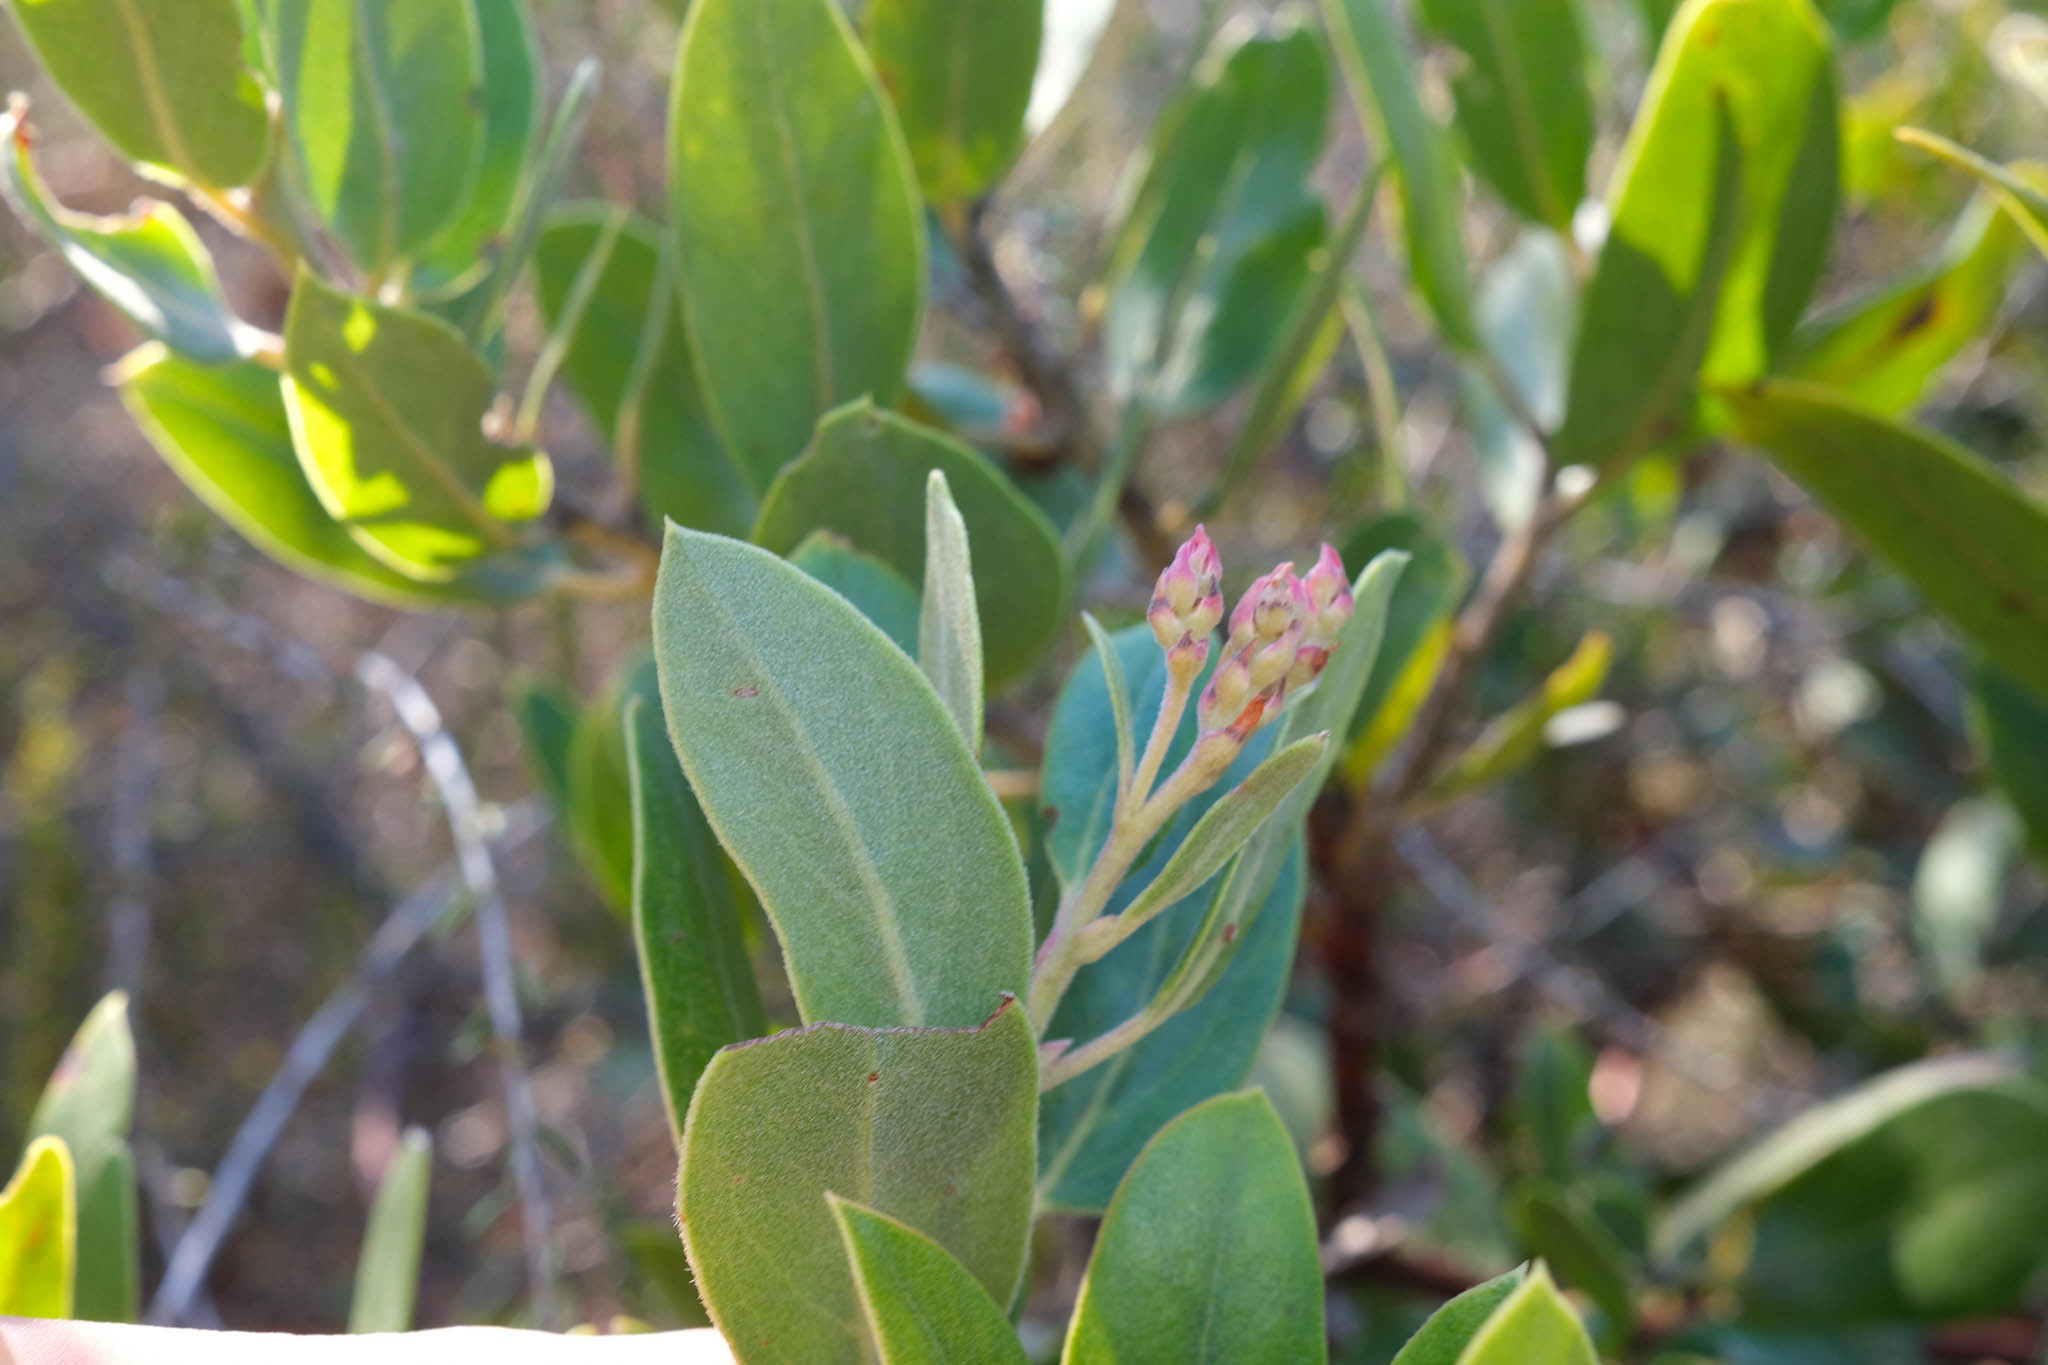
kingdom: Plantae
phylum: Tracheophyta
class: Magnoliopsida
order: Ericales
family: Ericaceae
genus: Arctostaphylos
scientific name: Arctostaphylos crustacea
